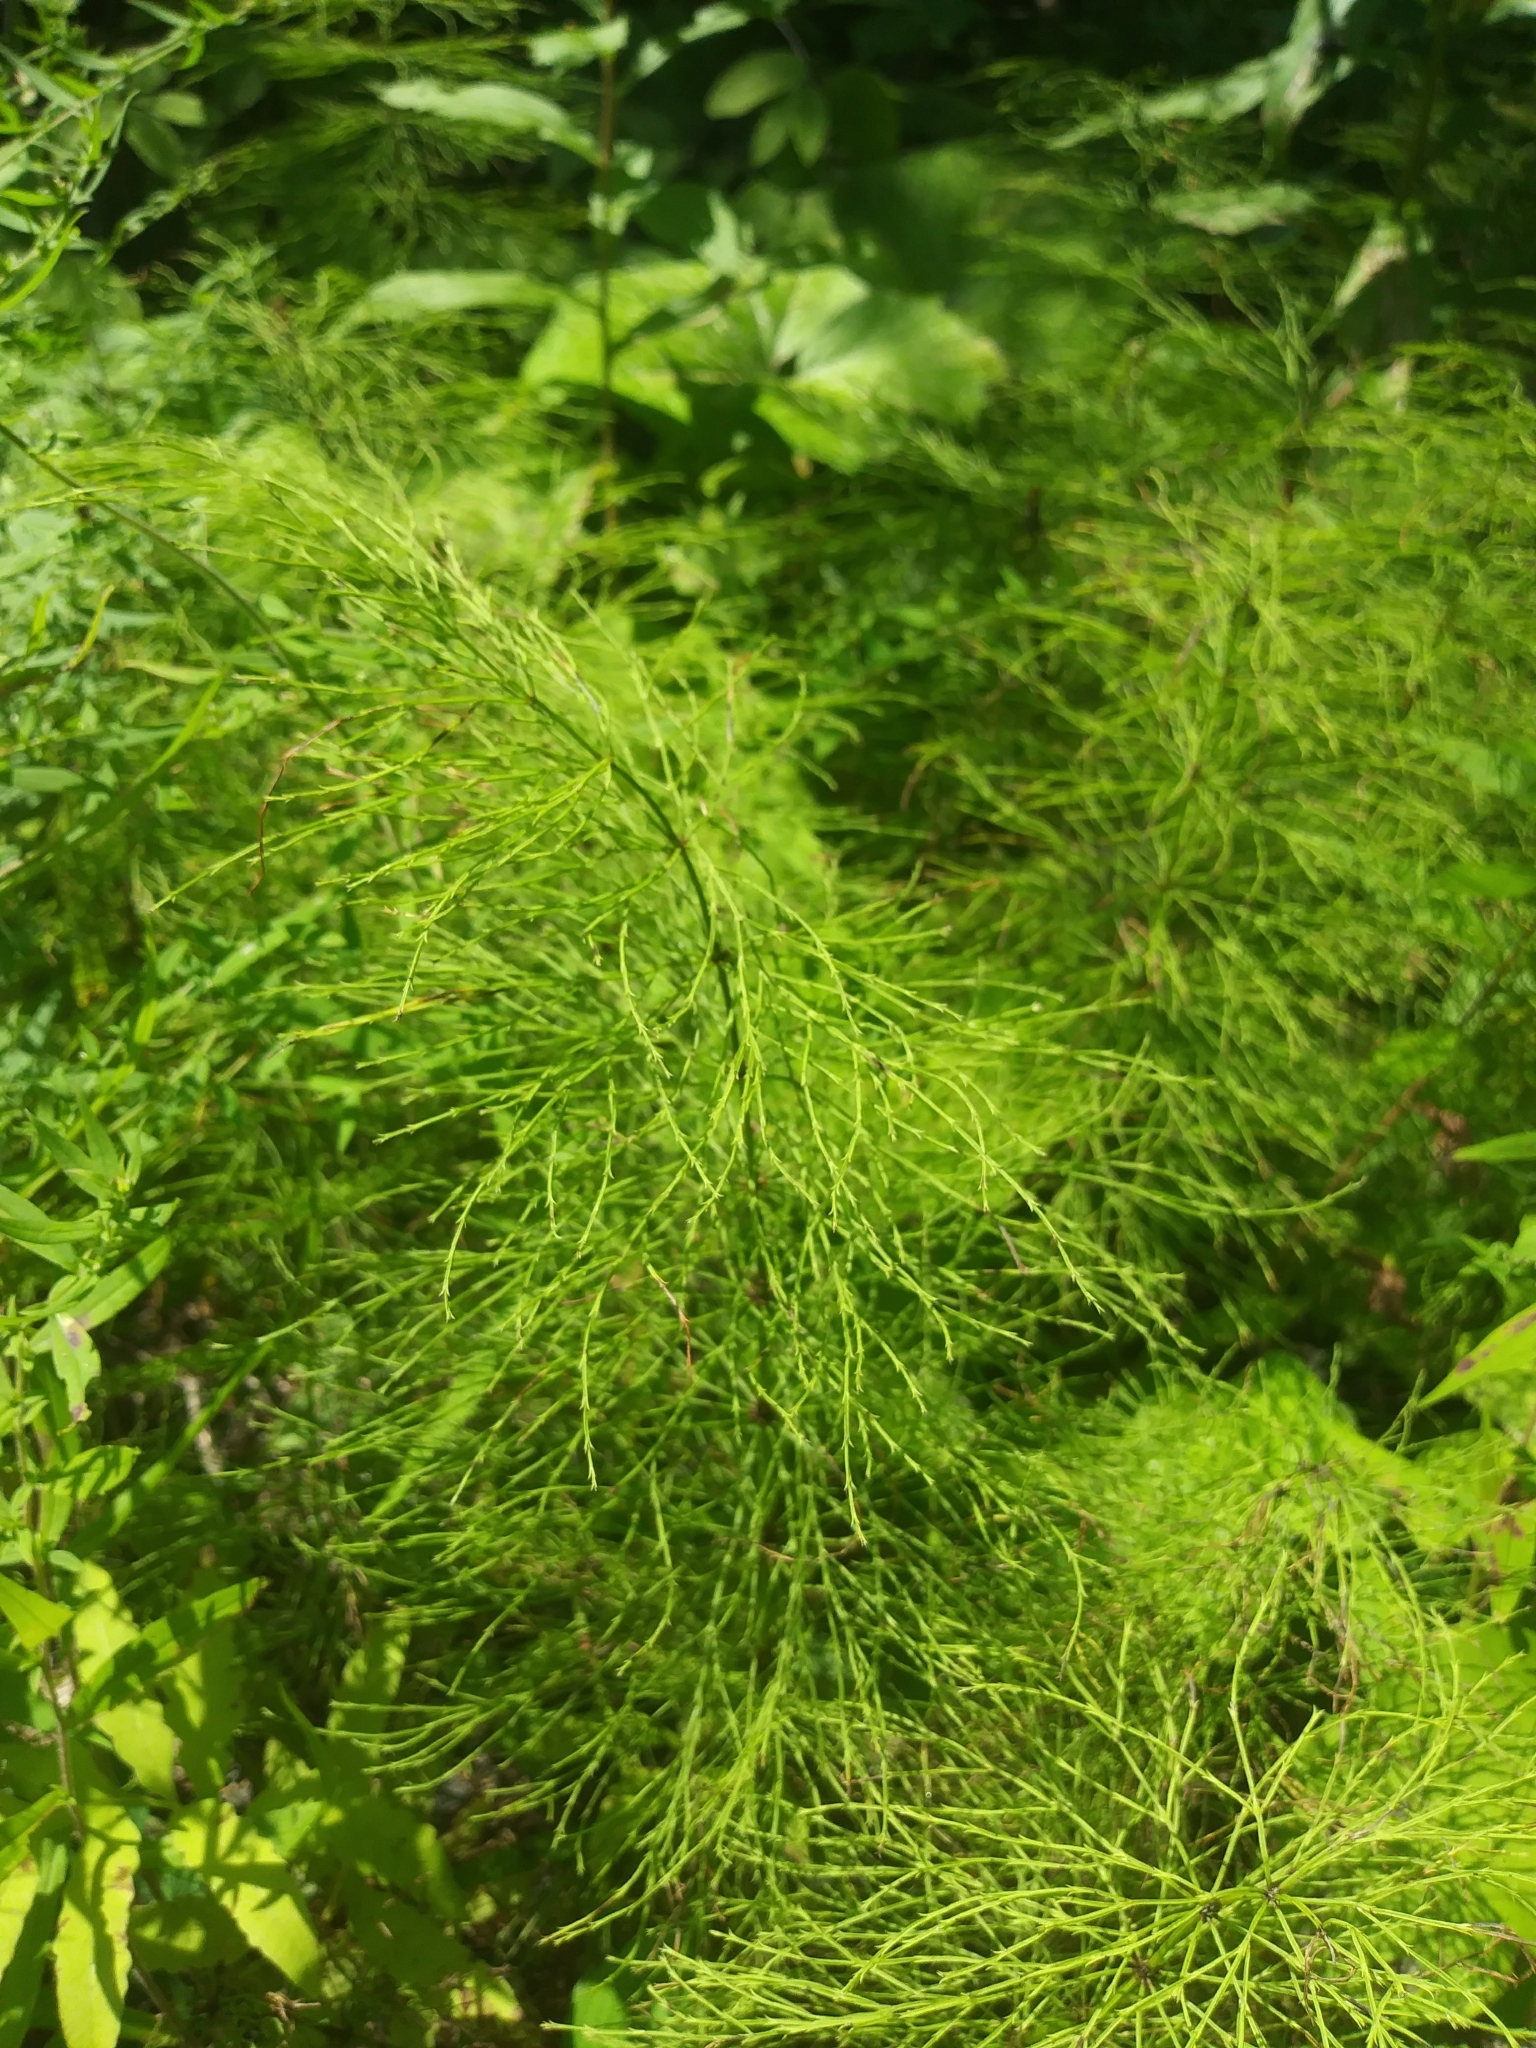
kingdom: Plantae
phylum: Tracheophyta
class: Polypodiopsida
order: Equisetales
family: Equisetaceae
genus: Equisetum
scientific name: Equisetum sylvaticum
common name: Wood horsetail
